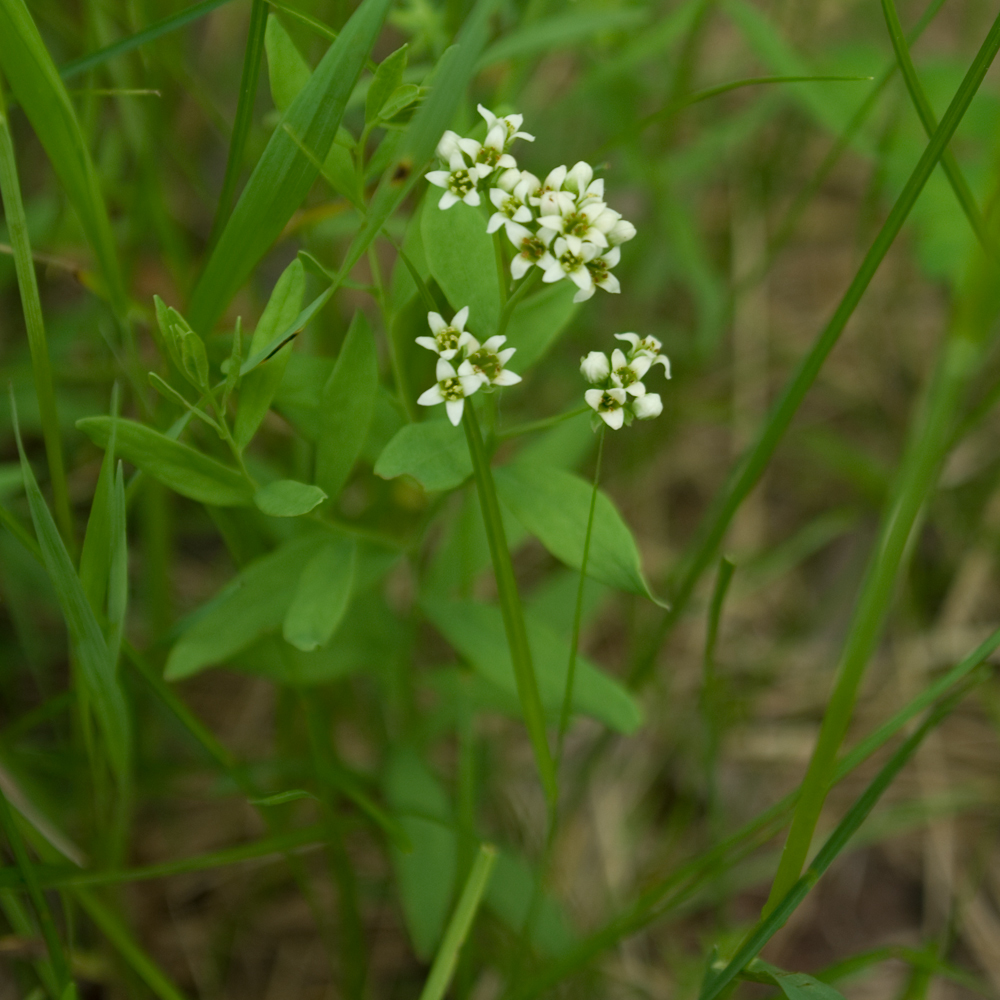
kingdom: Plantae
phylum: Tracheophyta
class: Magnoliopsida
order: Santalales
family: Comandraceae
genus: Comandra
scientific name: Comandra umbellata
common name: Bastard toadflax
